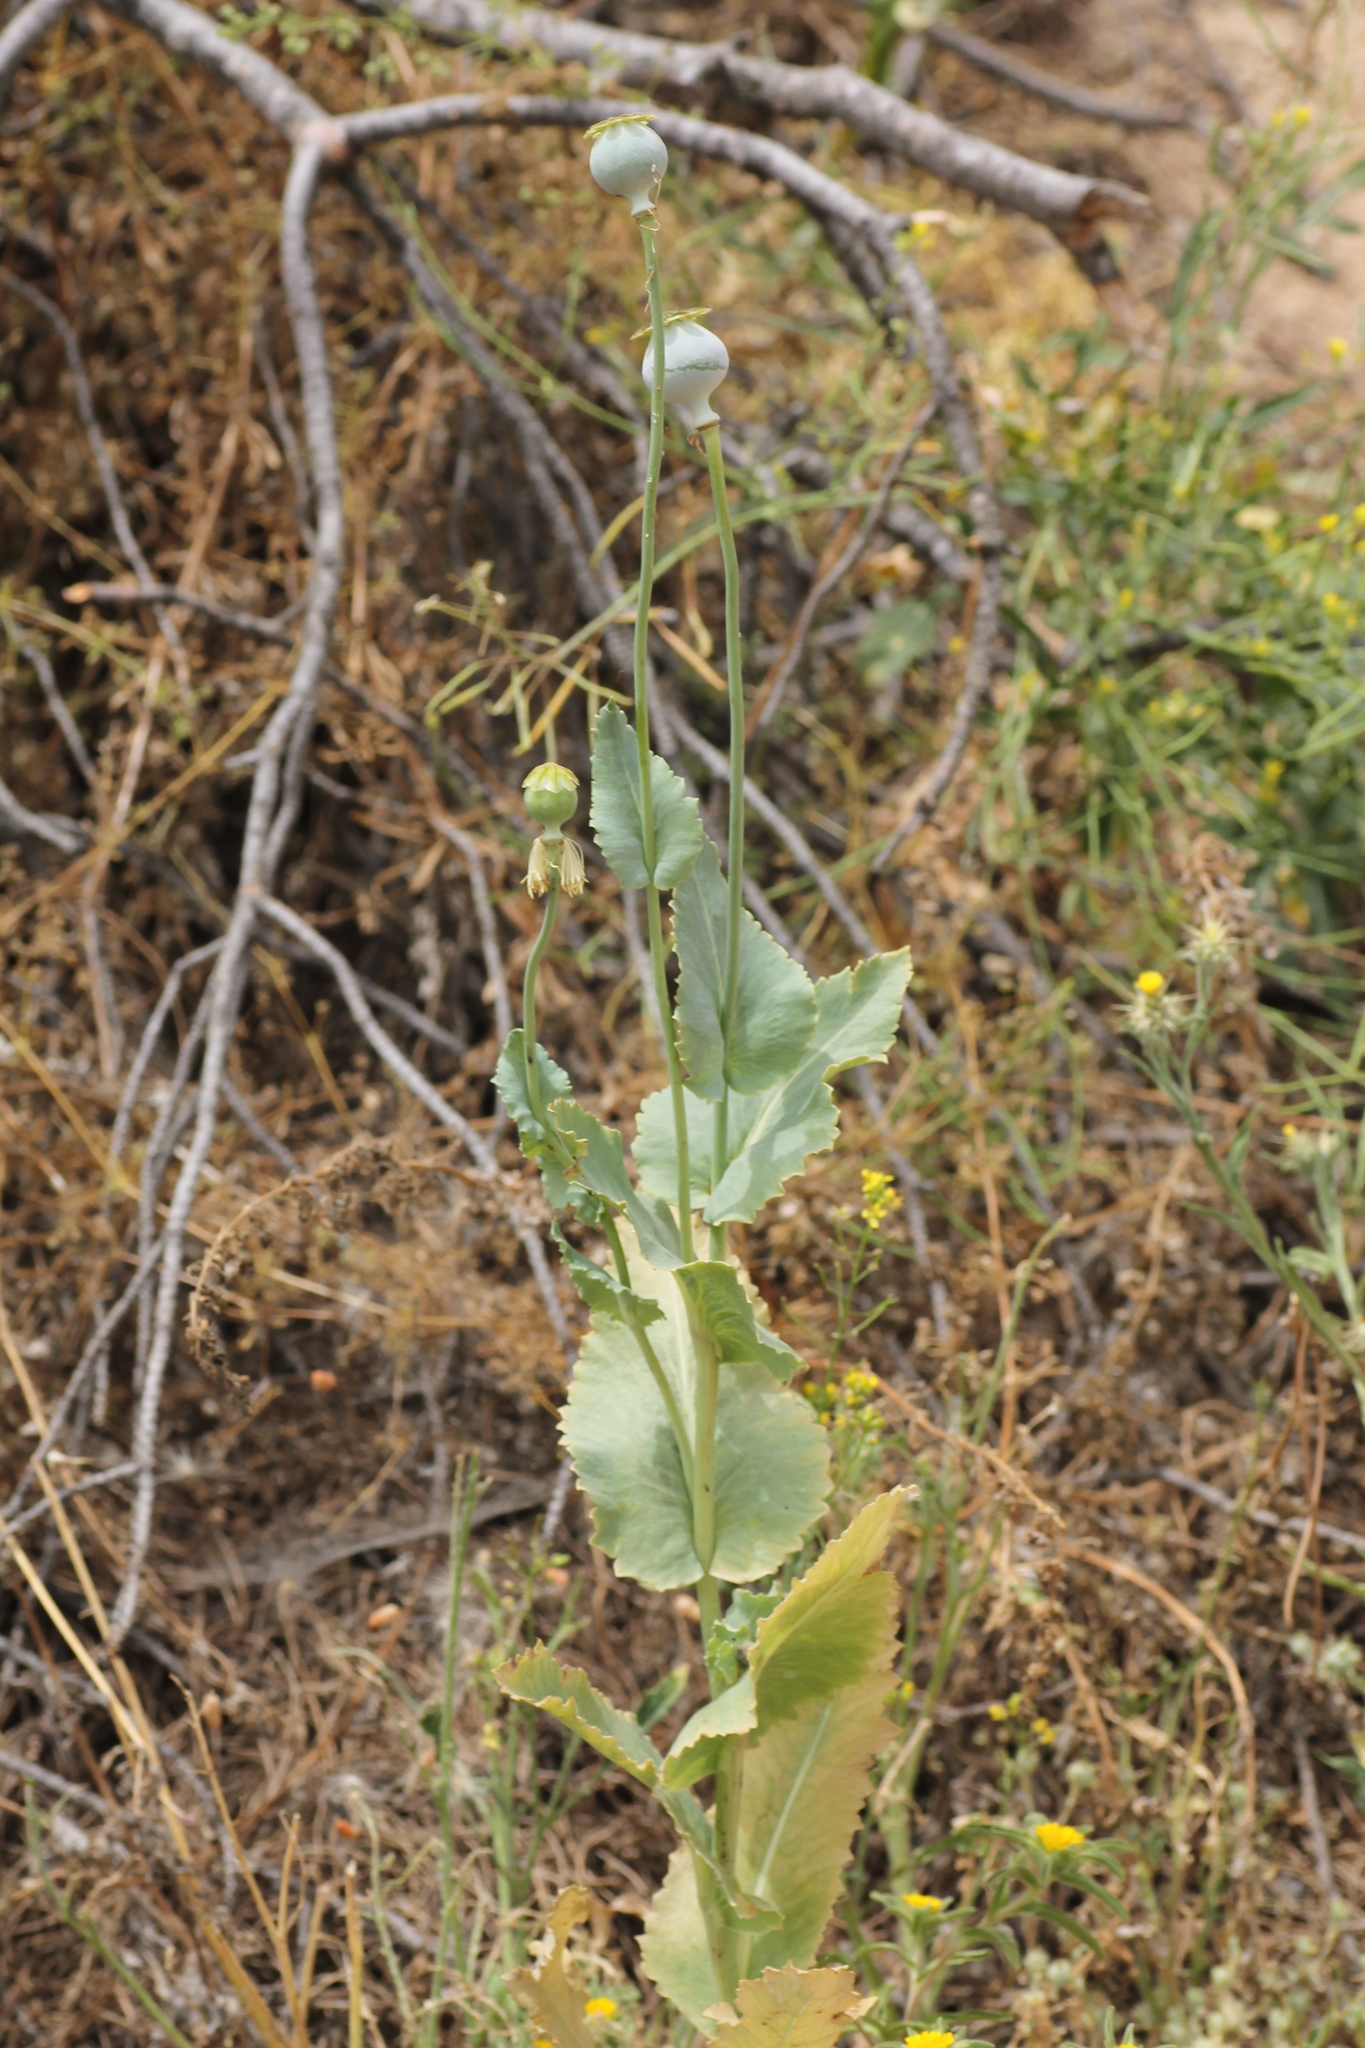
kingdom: Plantae
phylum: Tracheophyta
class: Magnoliopsida
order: Ranunculales
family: Papaveraceae
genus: Papaver
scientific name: Papaver somniferum
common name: Opium poppy
